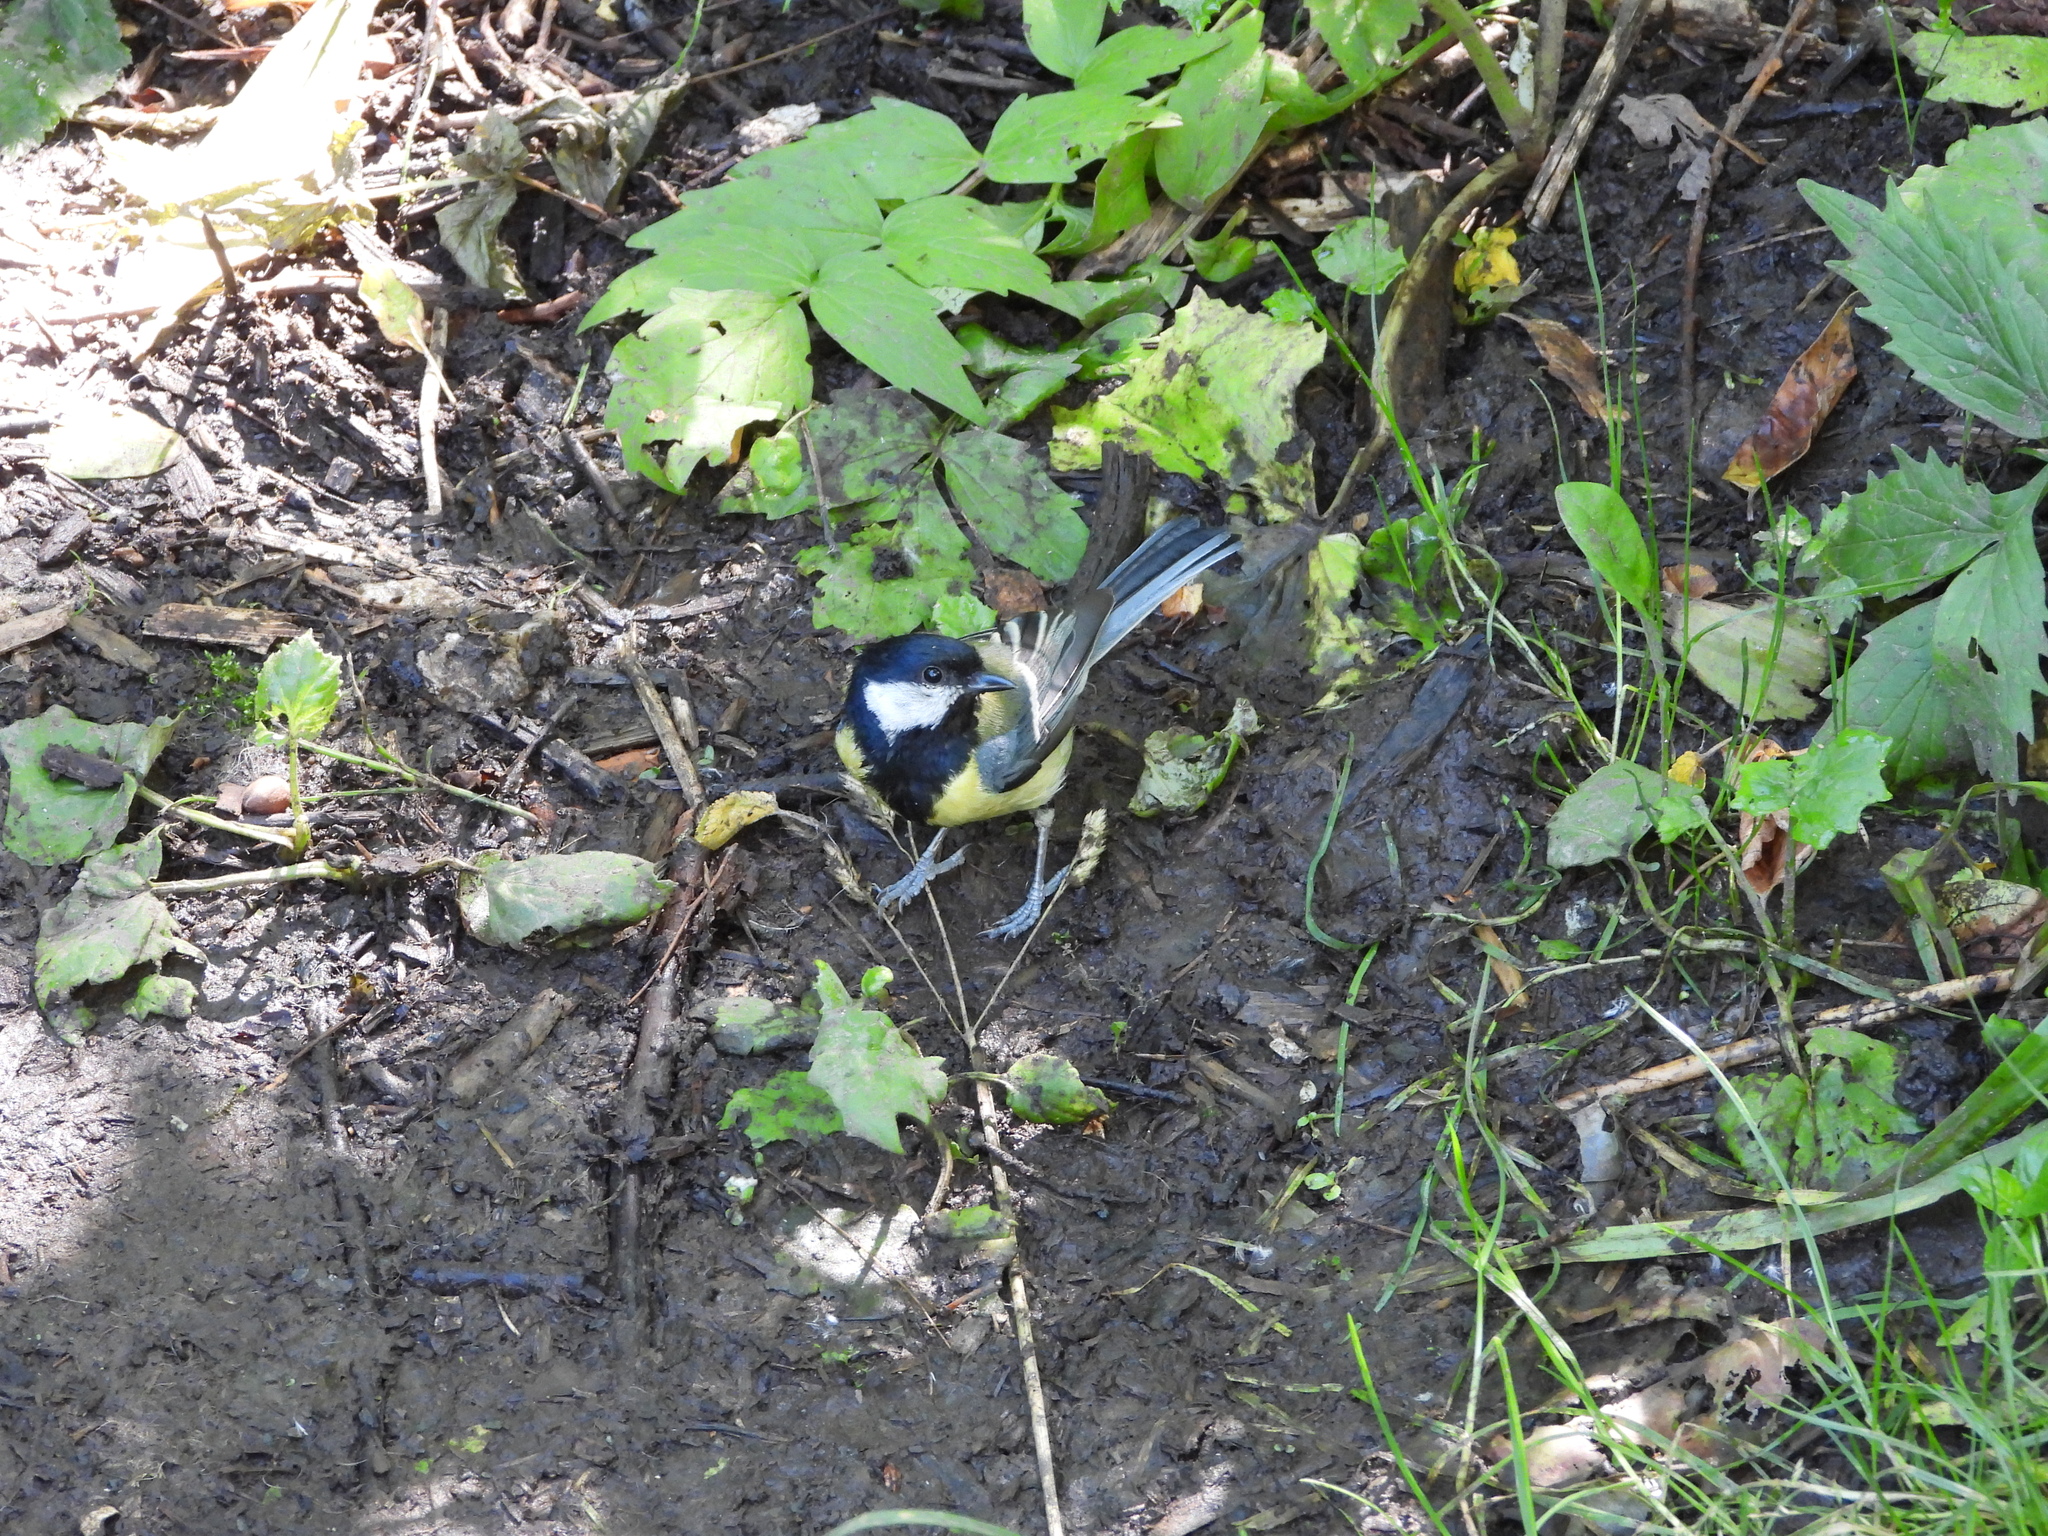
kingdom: Animalia
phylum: Chordata
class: Aves
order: Passeriformes
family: Paridae
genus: Parus
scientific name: Parus major
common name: Great tit
